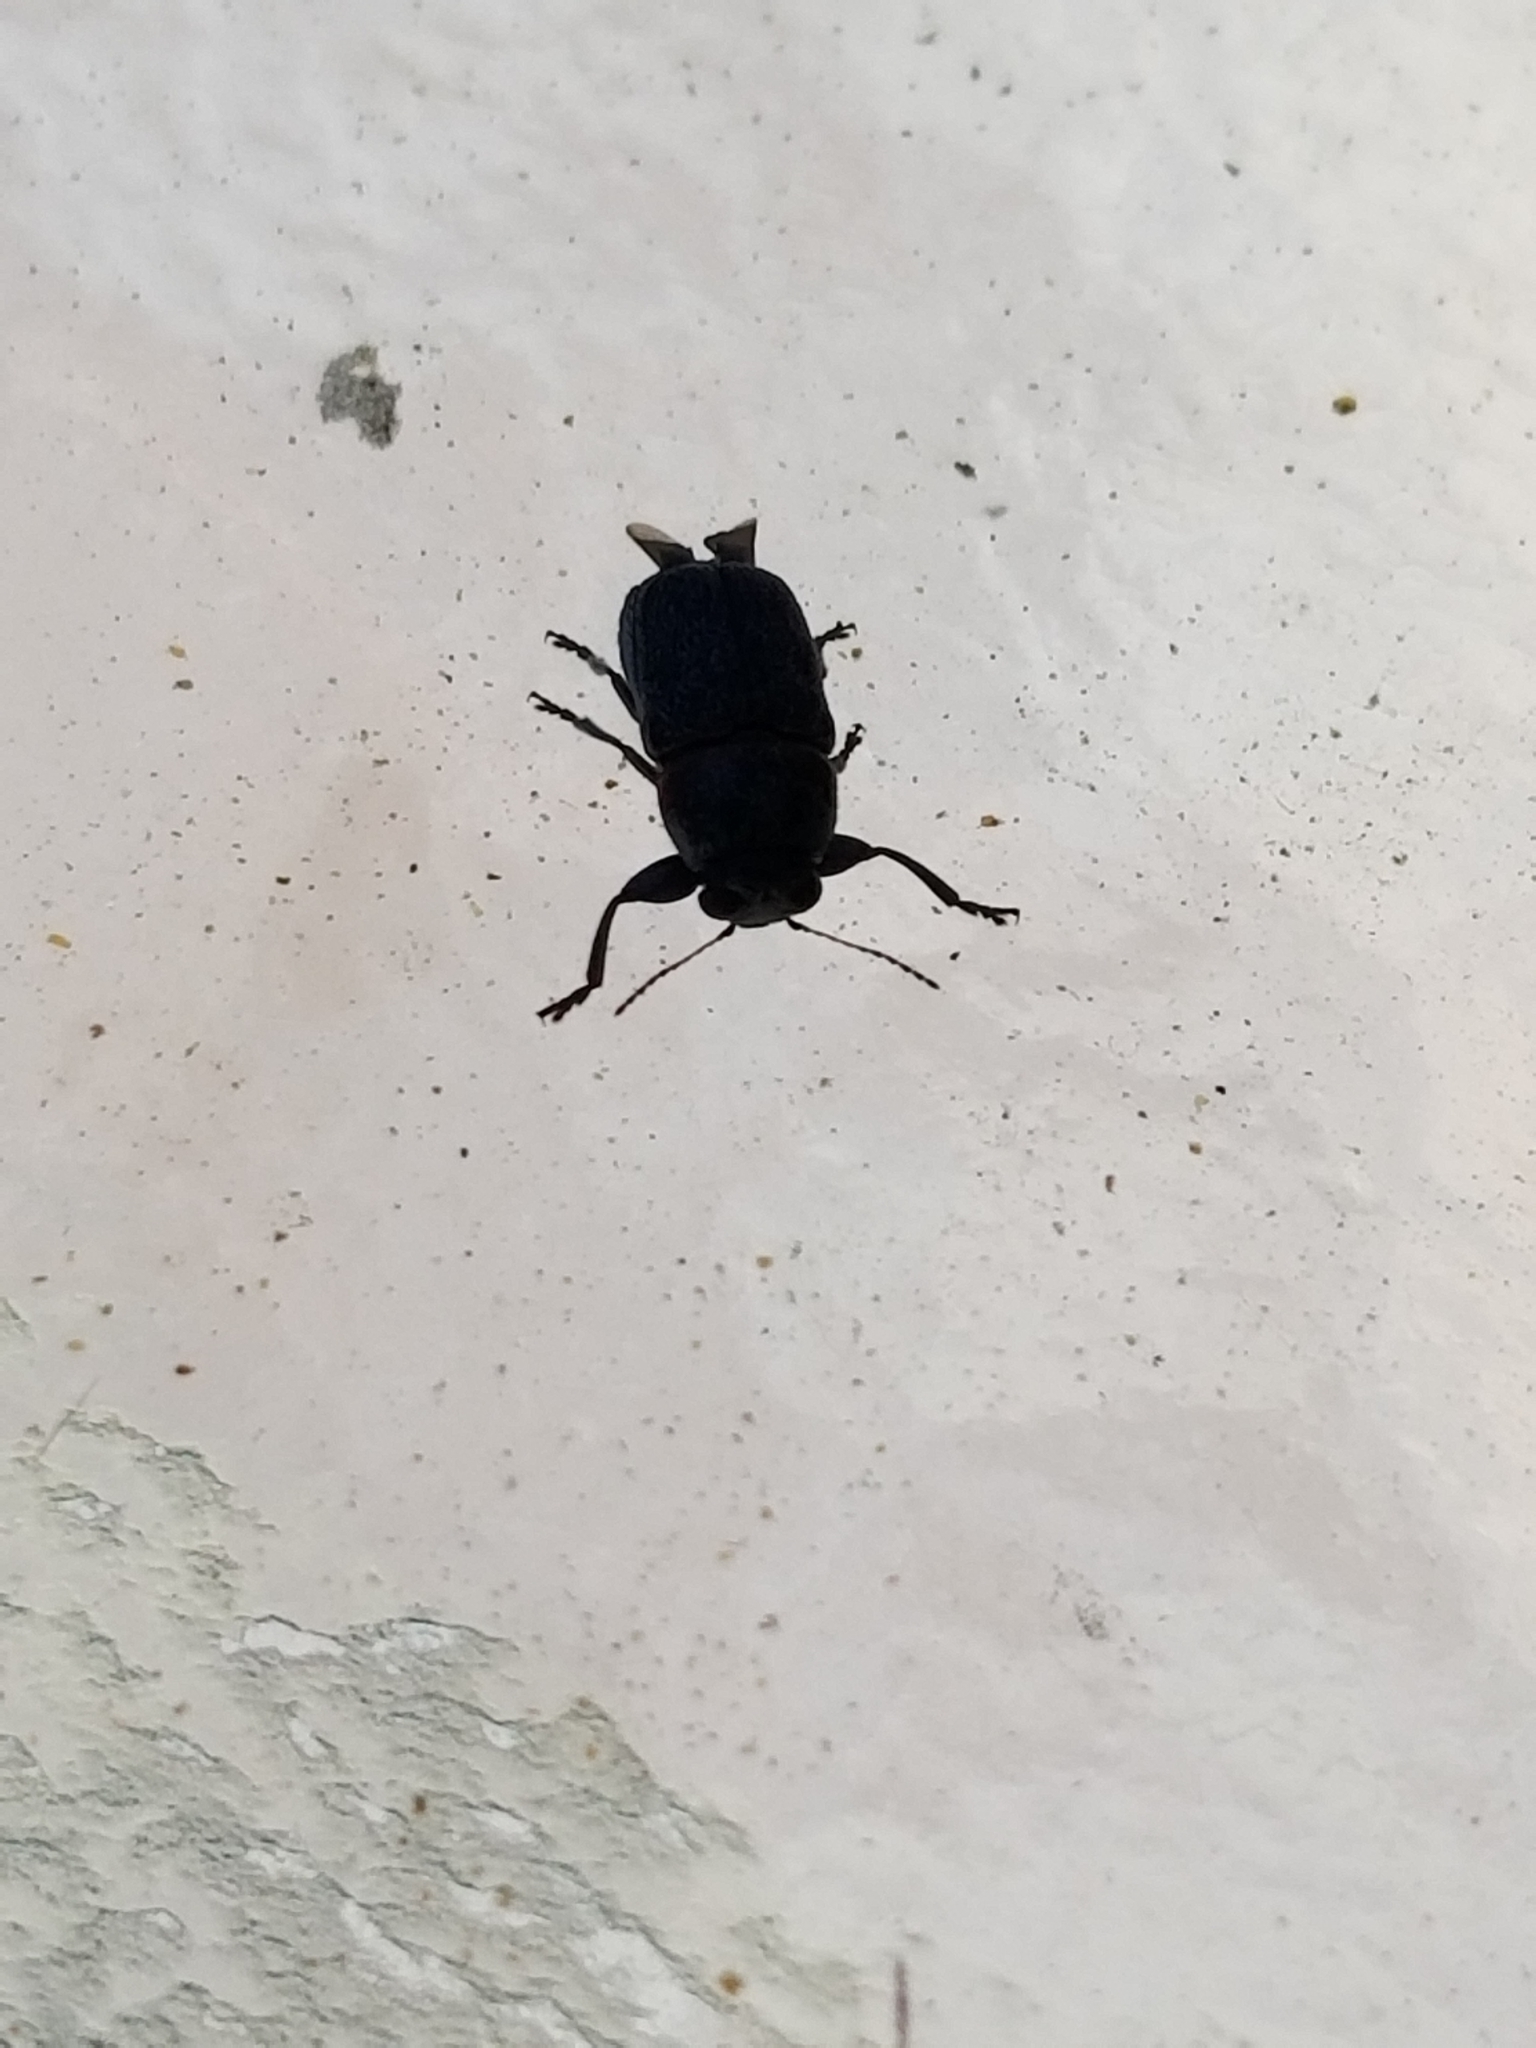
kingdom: Animalia
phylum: Arthropoda
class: Insecta
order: Coleoptera
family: Chrysomelidae
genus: Pachybrachis
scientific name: Pachybrachis thoracicus
